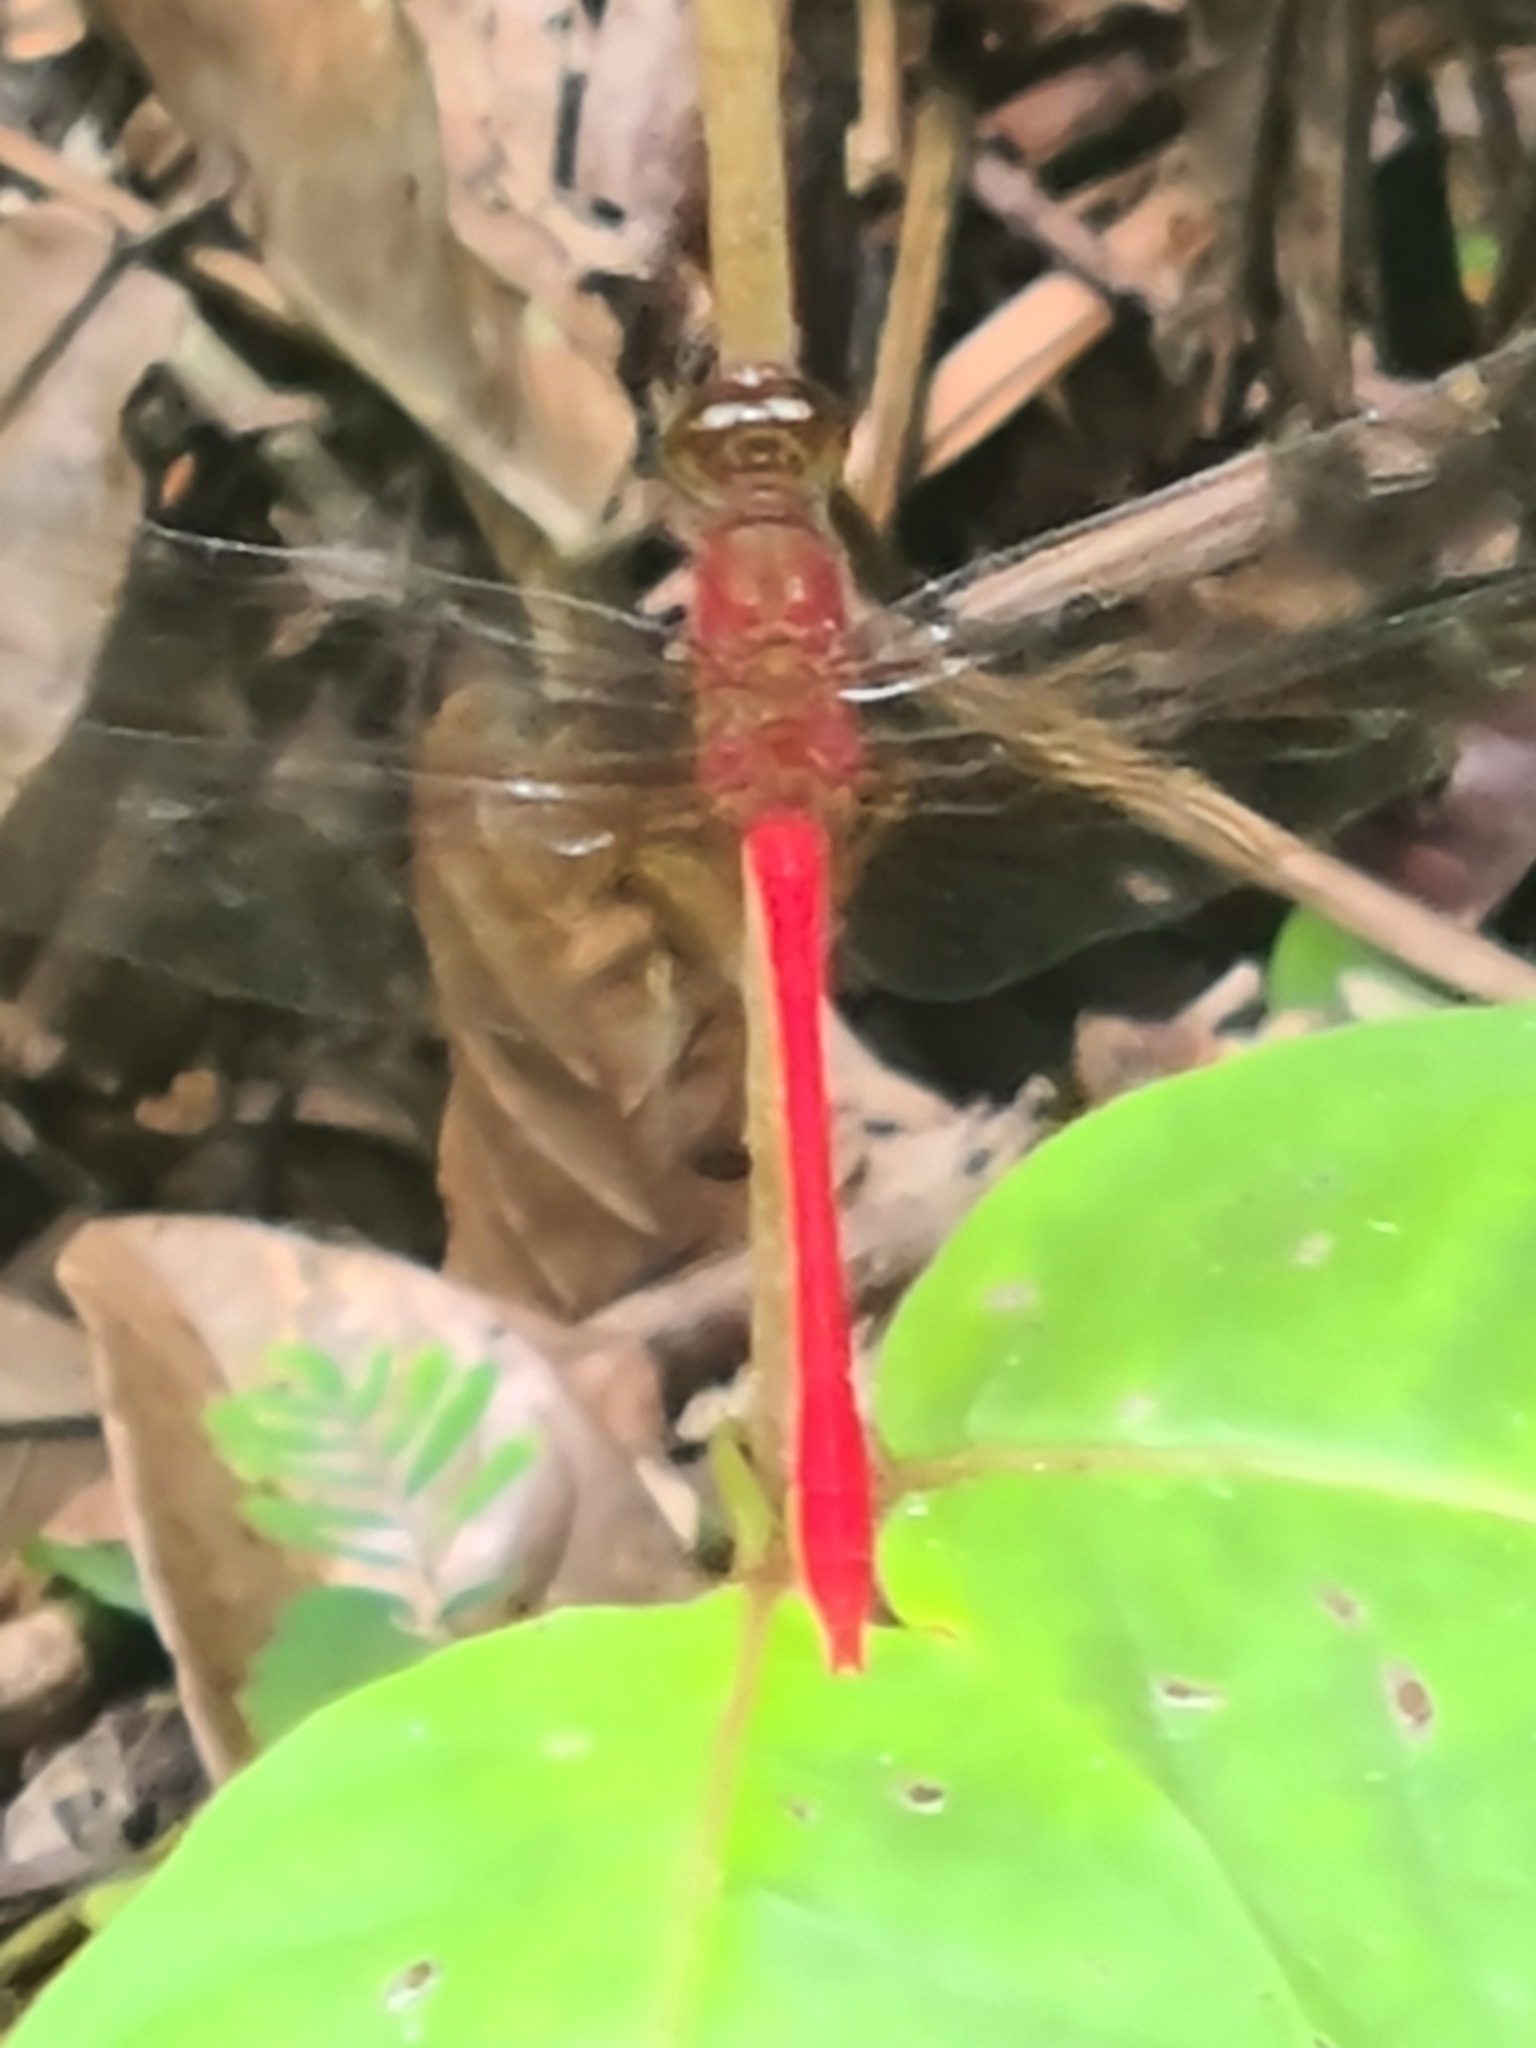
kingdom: Animalia
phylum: Arthropoda
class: Insecta
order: Odonata
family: Libellulidae
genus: Rhodopygia
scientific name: Rhodopygia cardinalis
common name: Cardinal redskimmer
